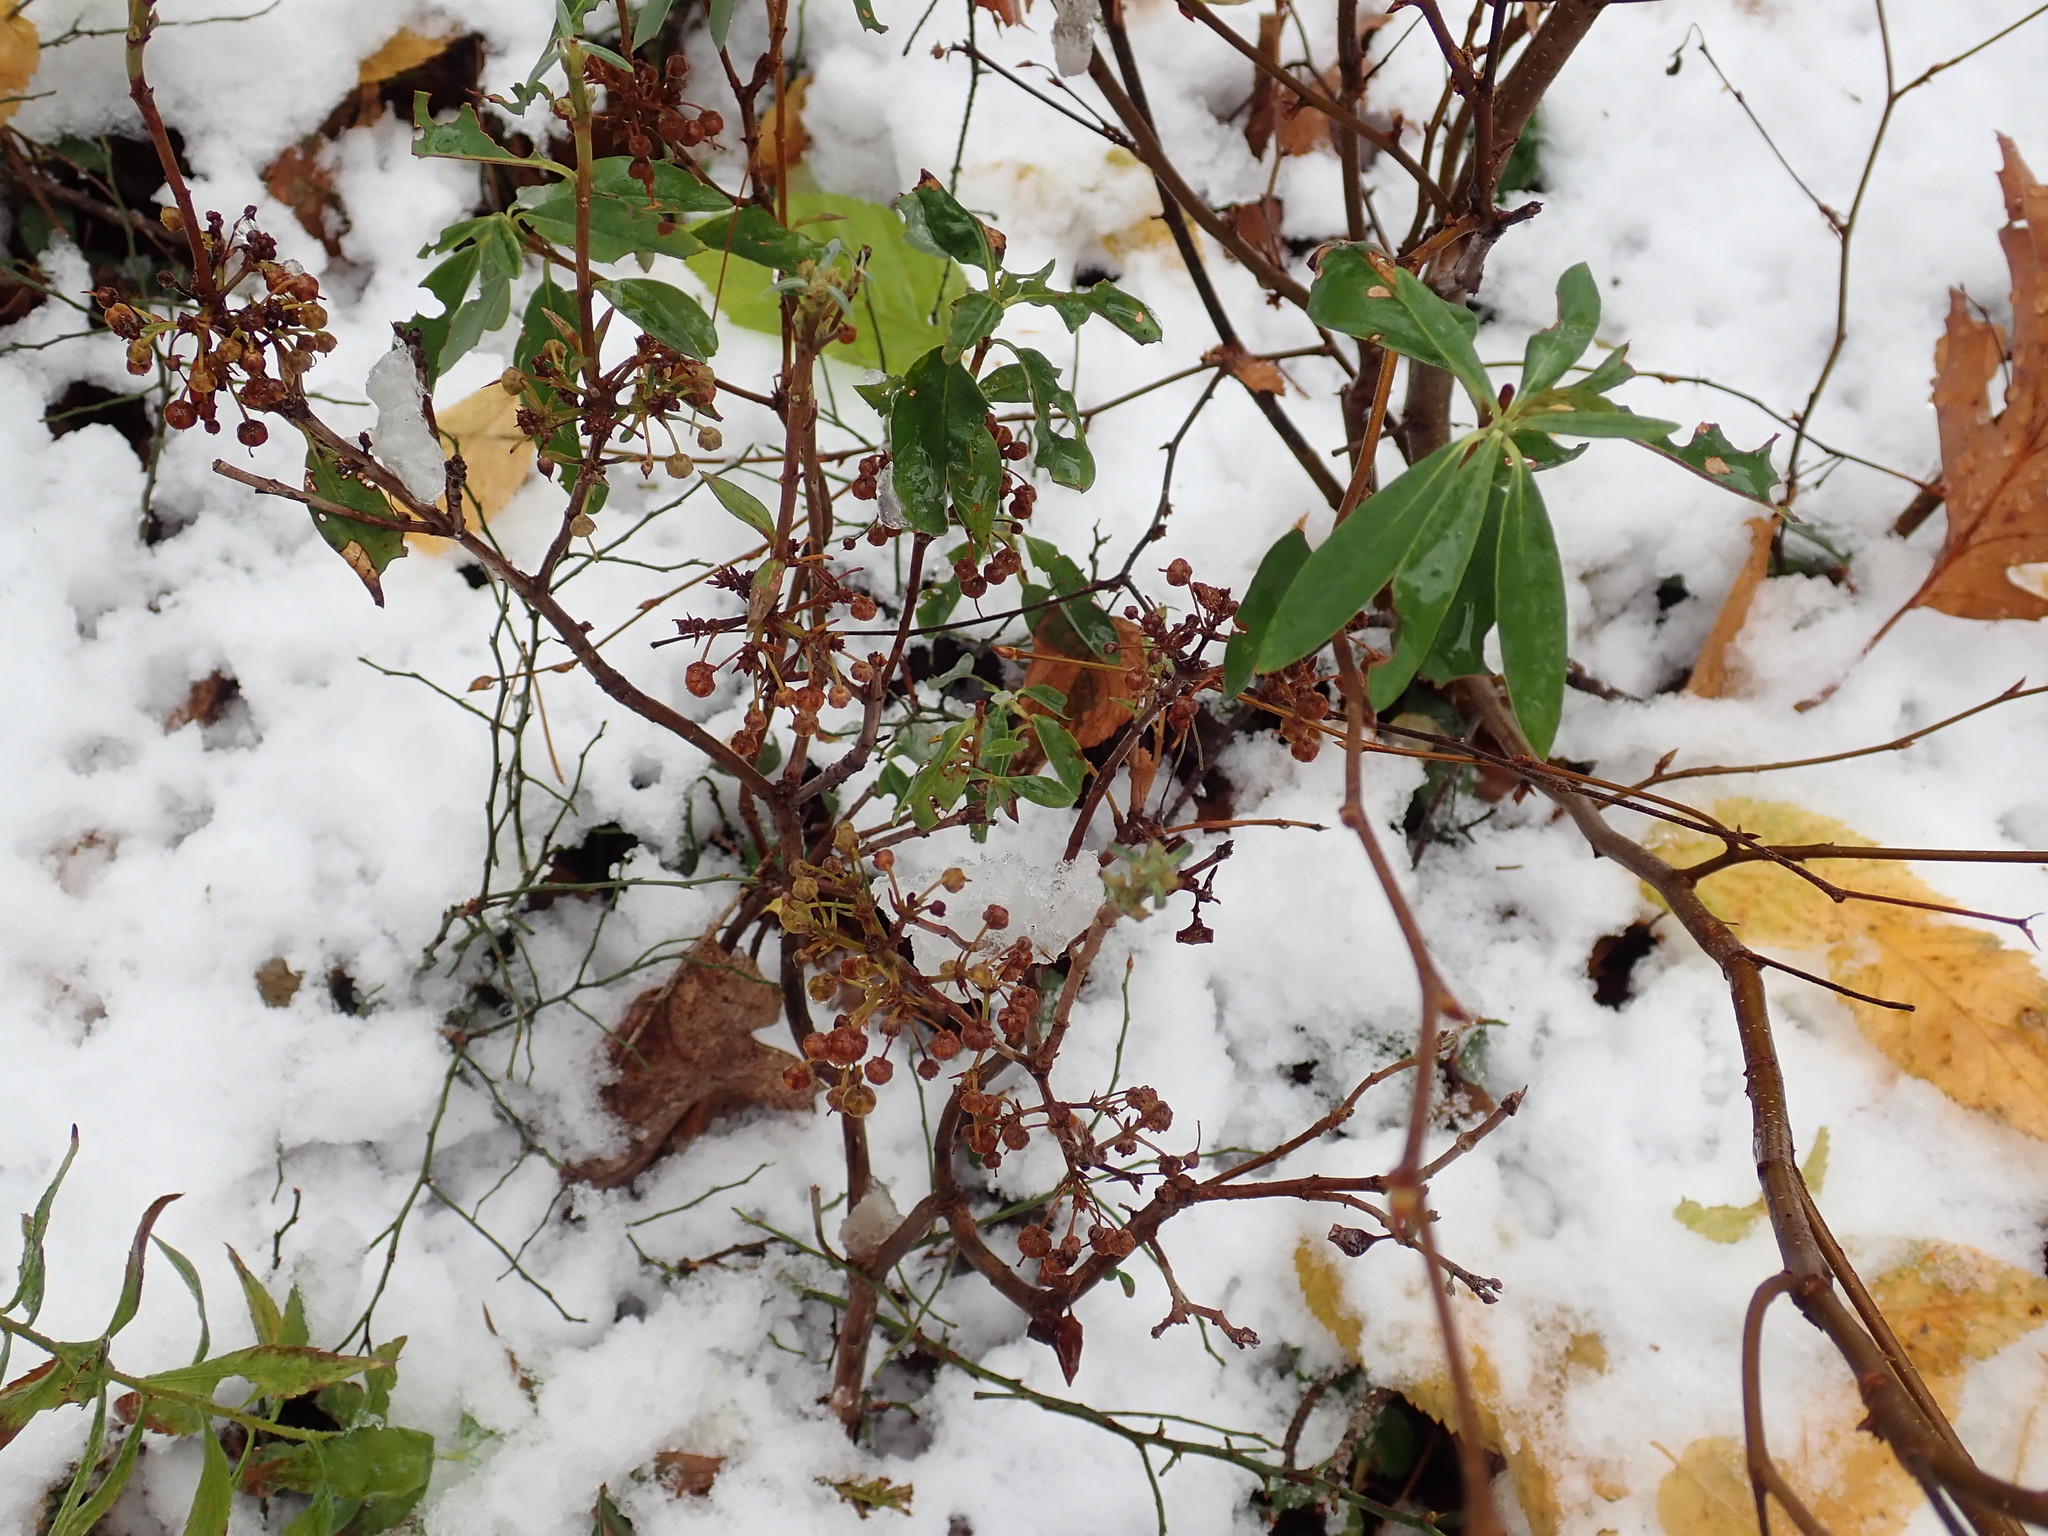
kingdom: Plantae
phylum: Tracheophyta
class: Magnoliopsida
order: Ericales
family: Ericaceae
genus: Kalmia
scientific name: Kalmia angustifolia
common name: Sheep-laurel
